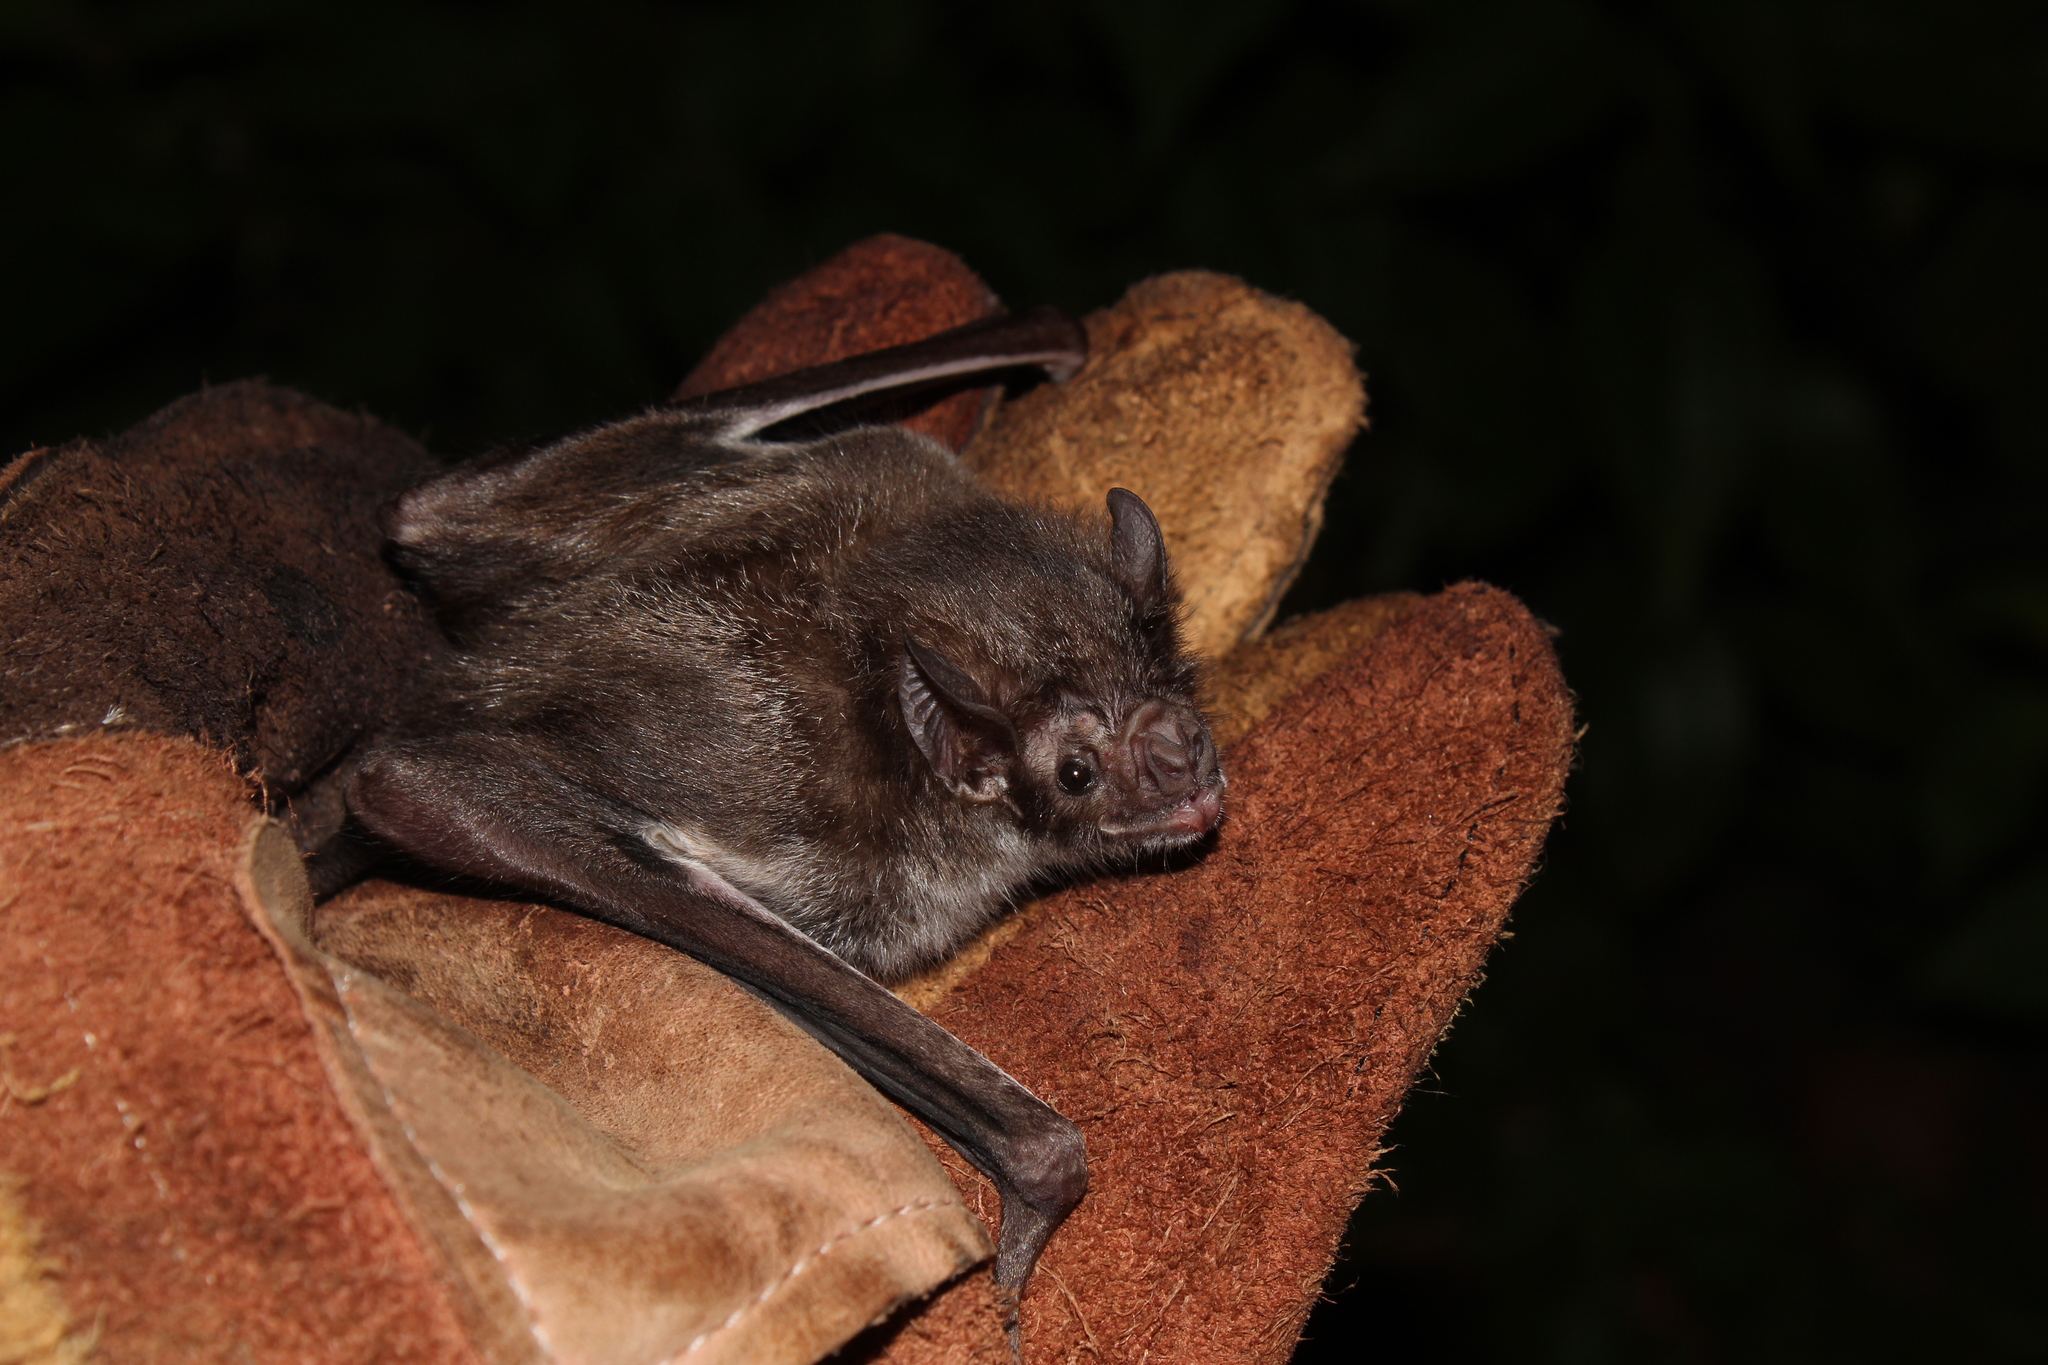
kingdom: Animalia
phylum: Chordata
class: Mammalia
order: Chiroptera
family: Phyllostomidae
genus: Desmodus
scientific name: Desmodus rotundus
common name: Common vampire bat
